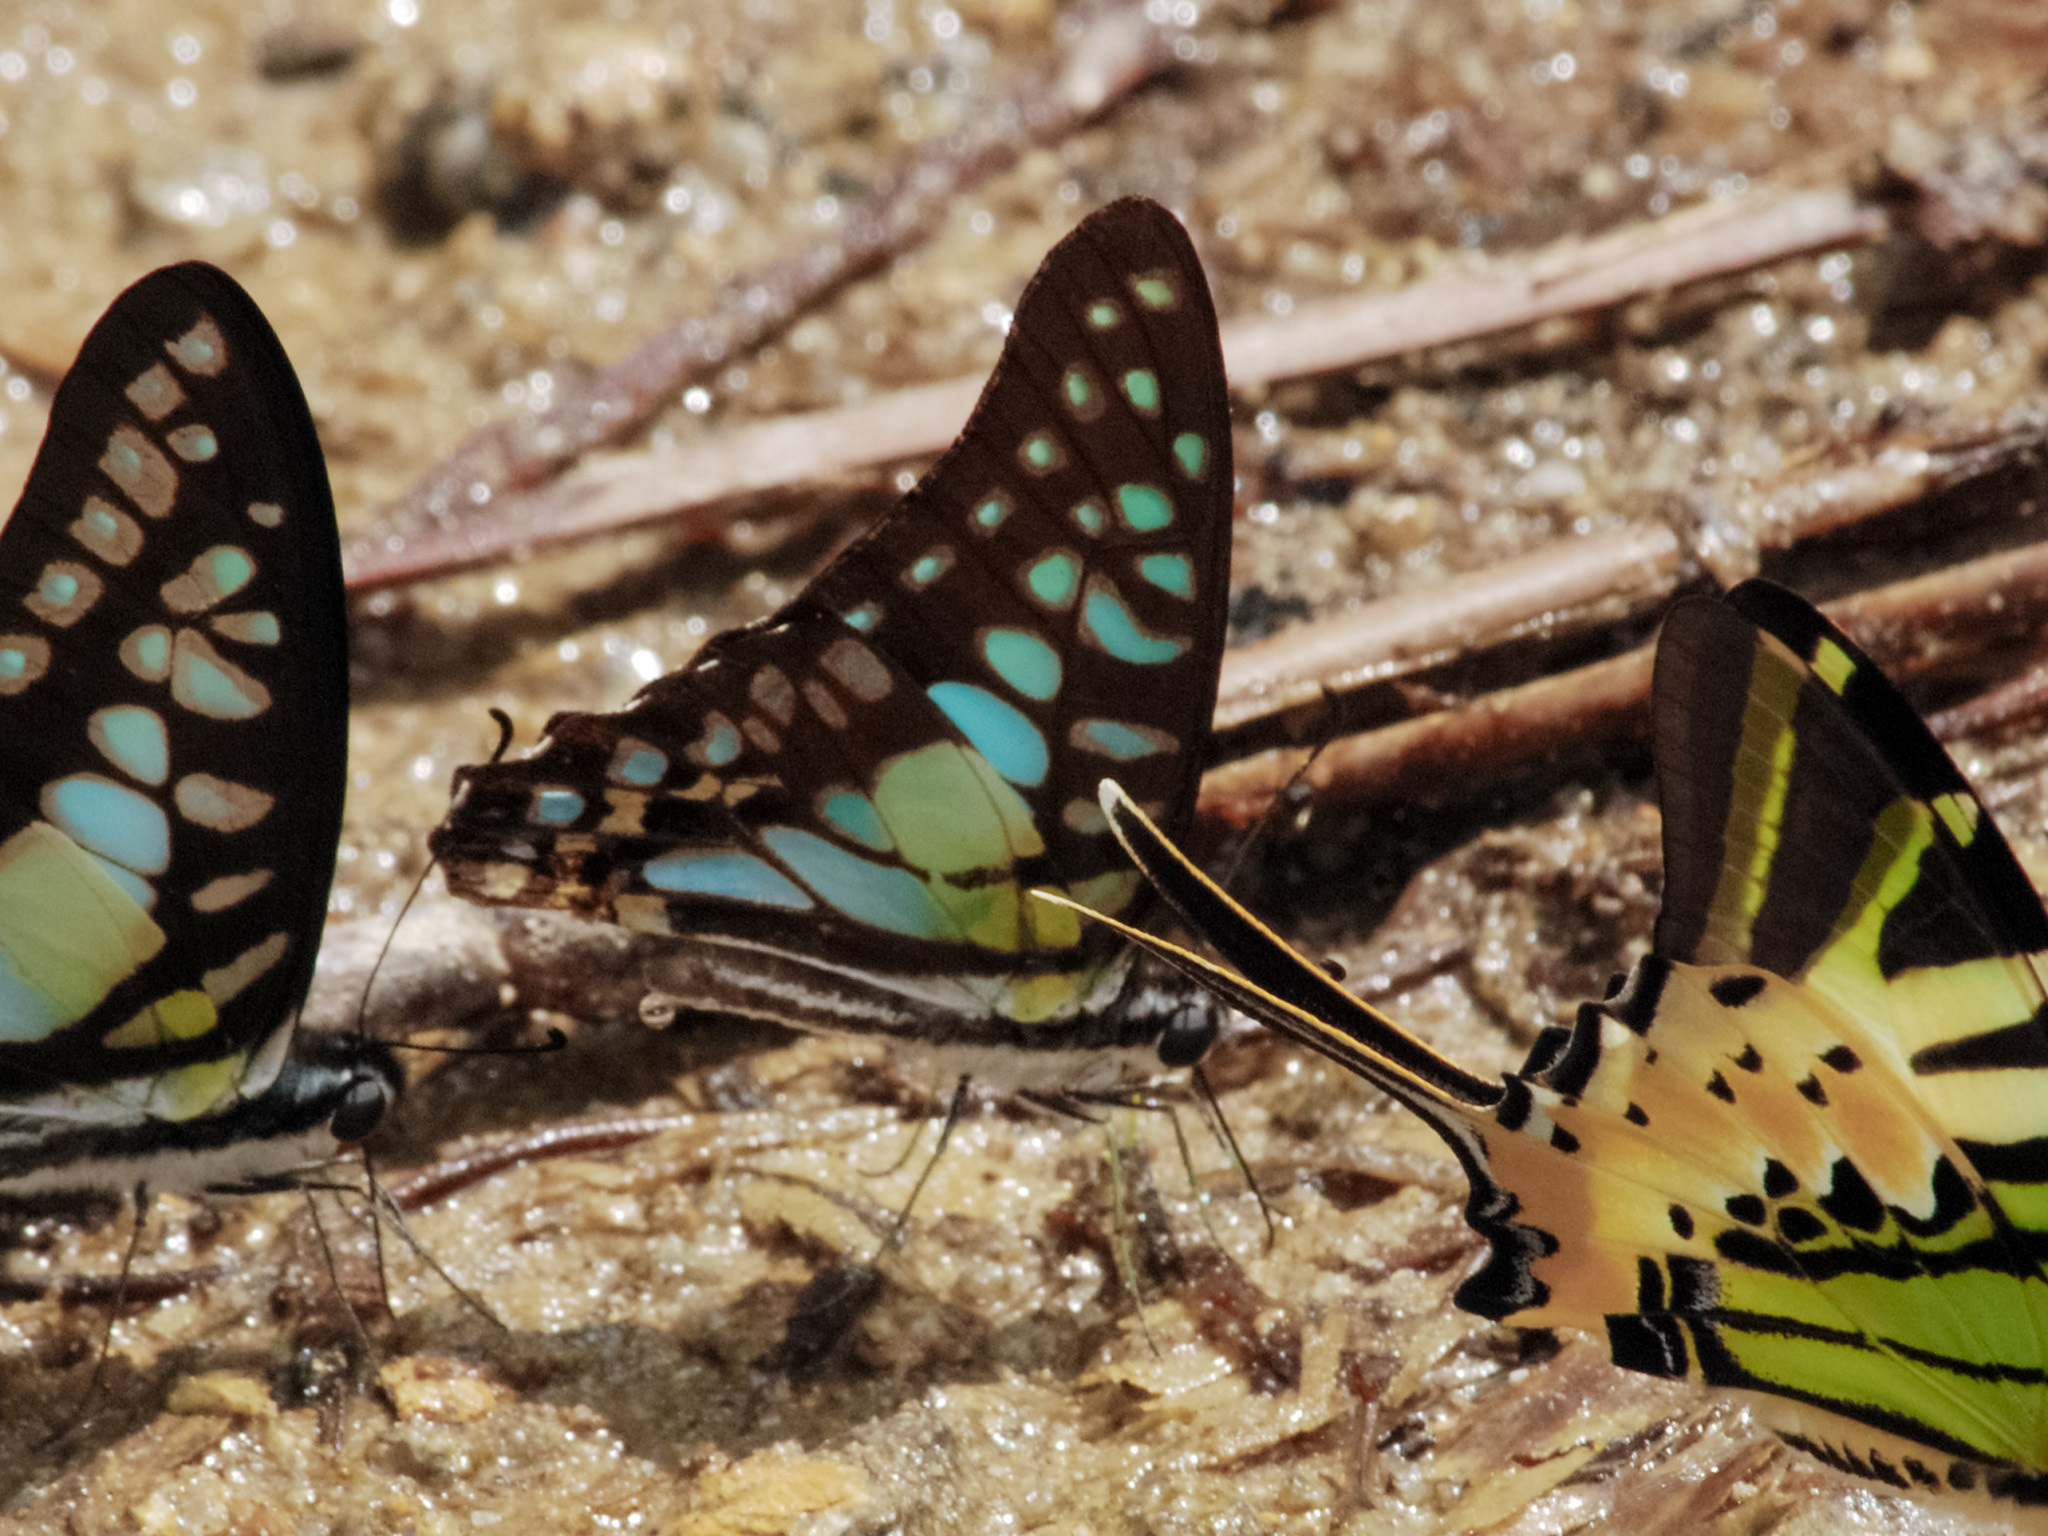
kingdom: Animalia
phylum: Arthropoda
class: Insecta
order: Lepidoptera
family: Papilionidae
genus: Graphium
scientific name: Graphium bathycles
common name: Veined jay
